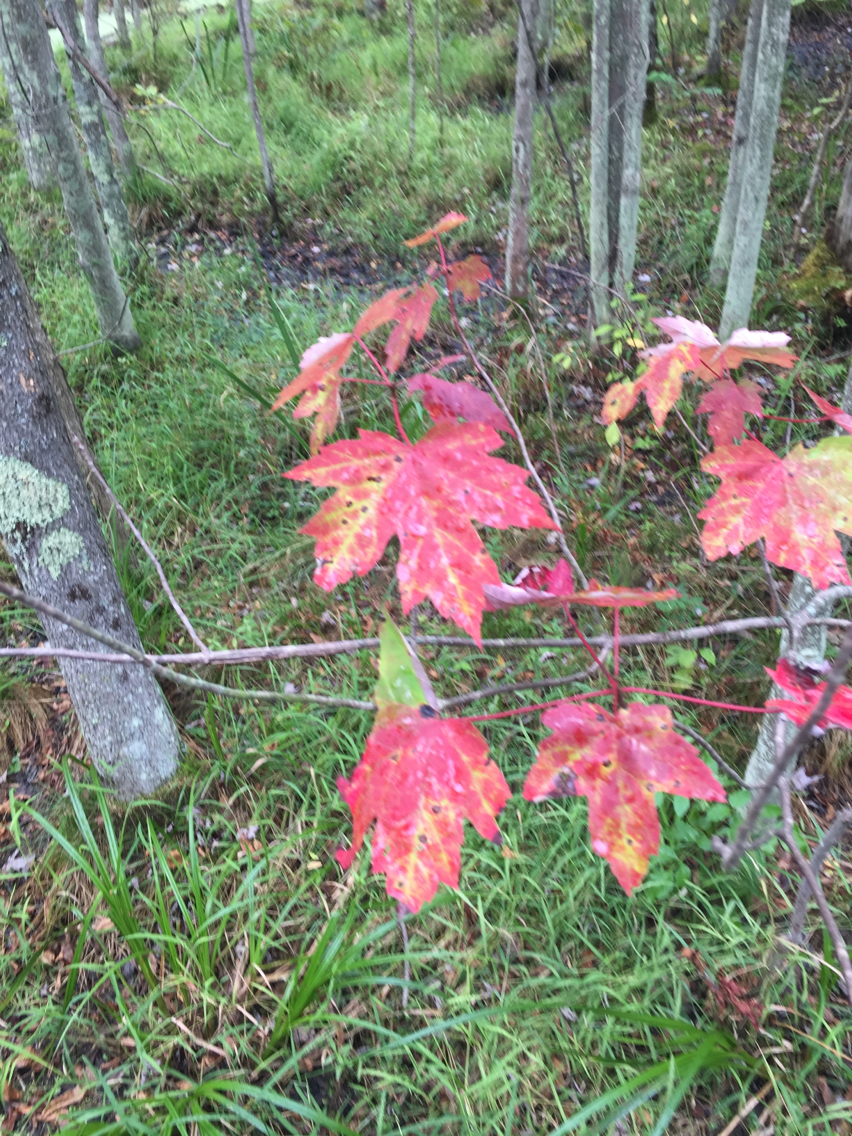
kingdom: Plantae
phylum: Tracheophyta
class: Magnoliopsida
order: Sapindales
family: Sapindaceae
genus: Acer
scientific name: Acer rubrum
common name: Red maple
